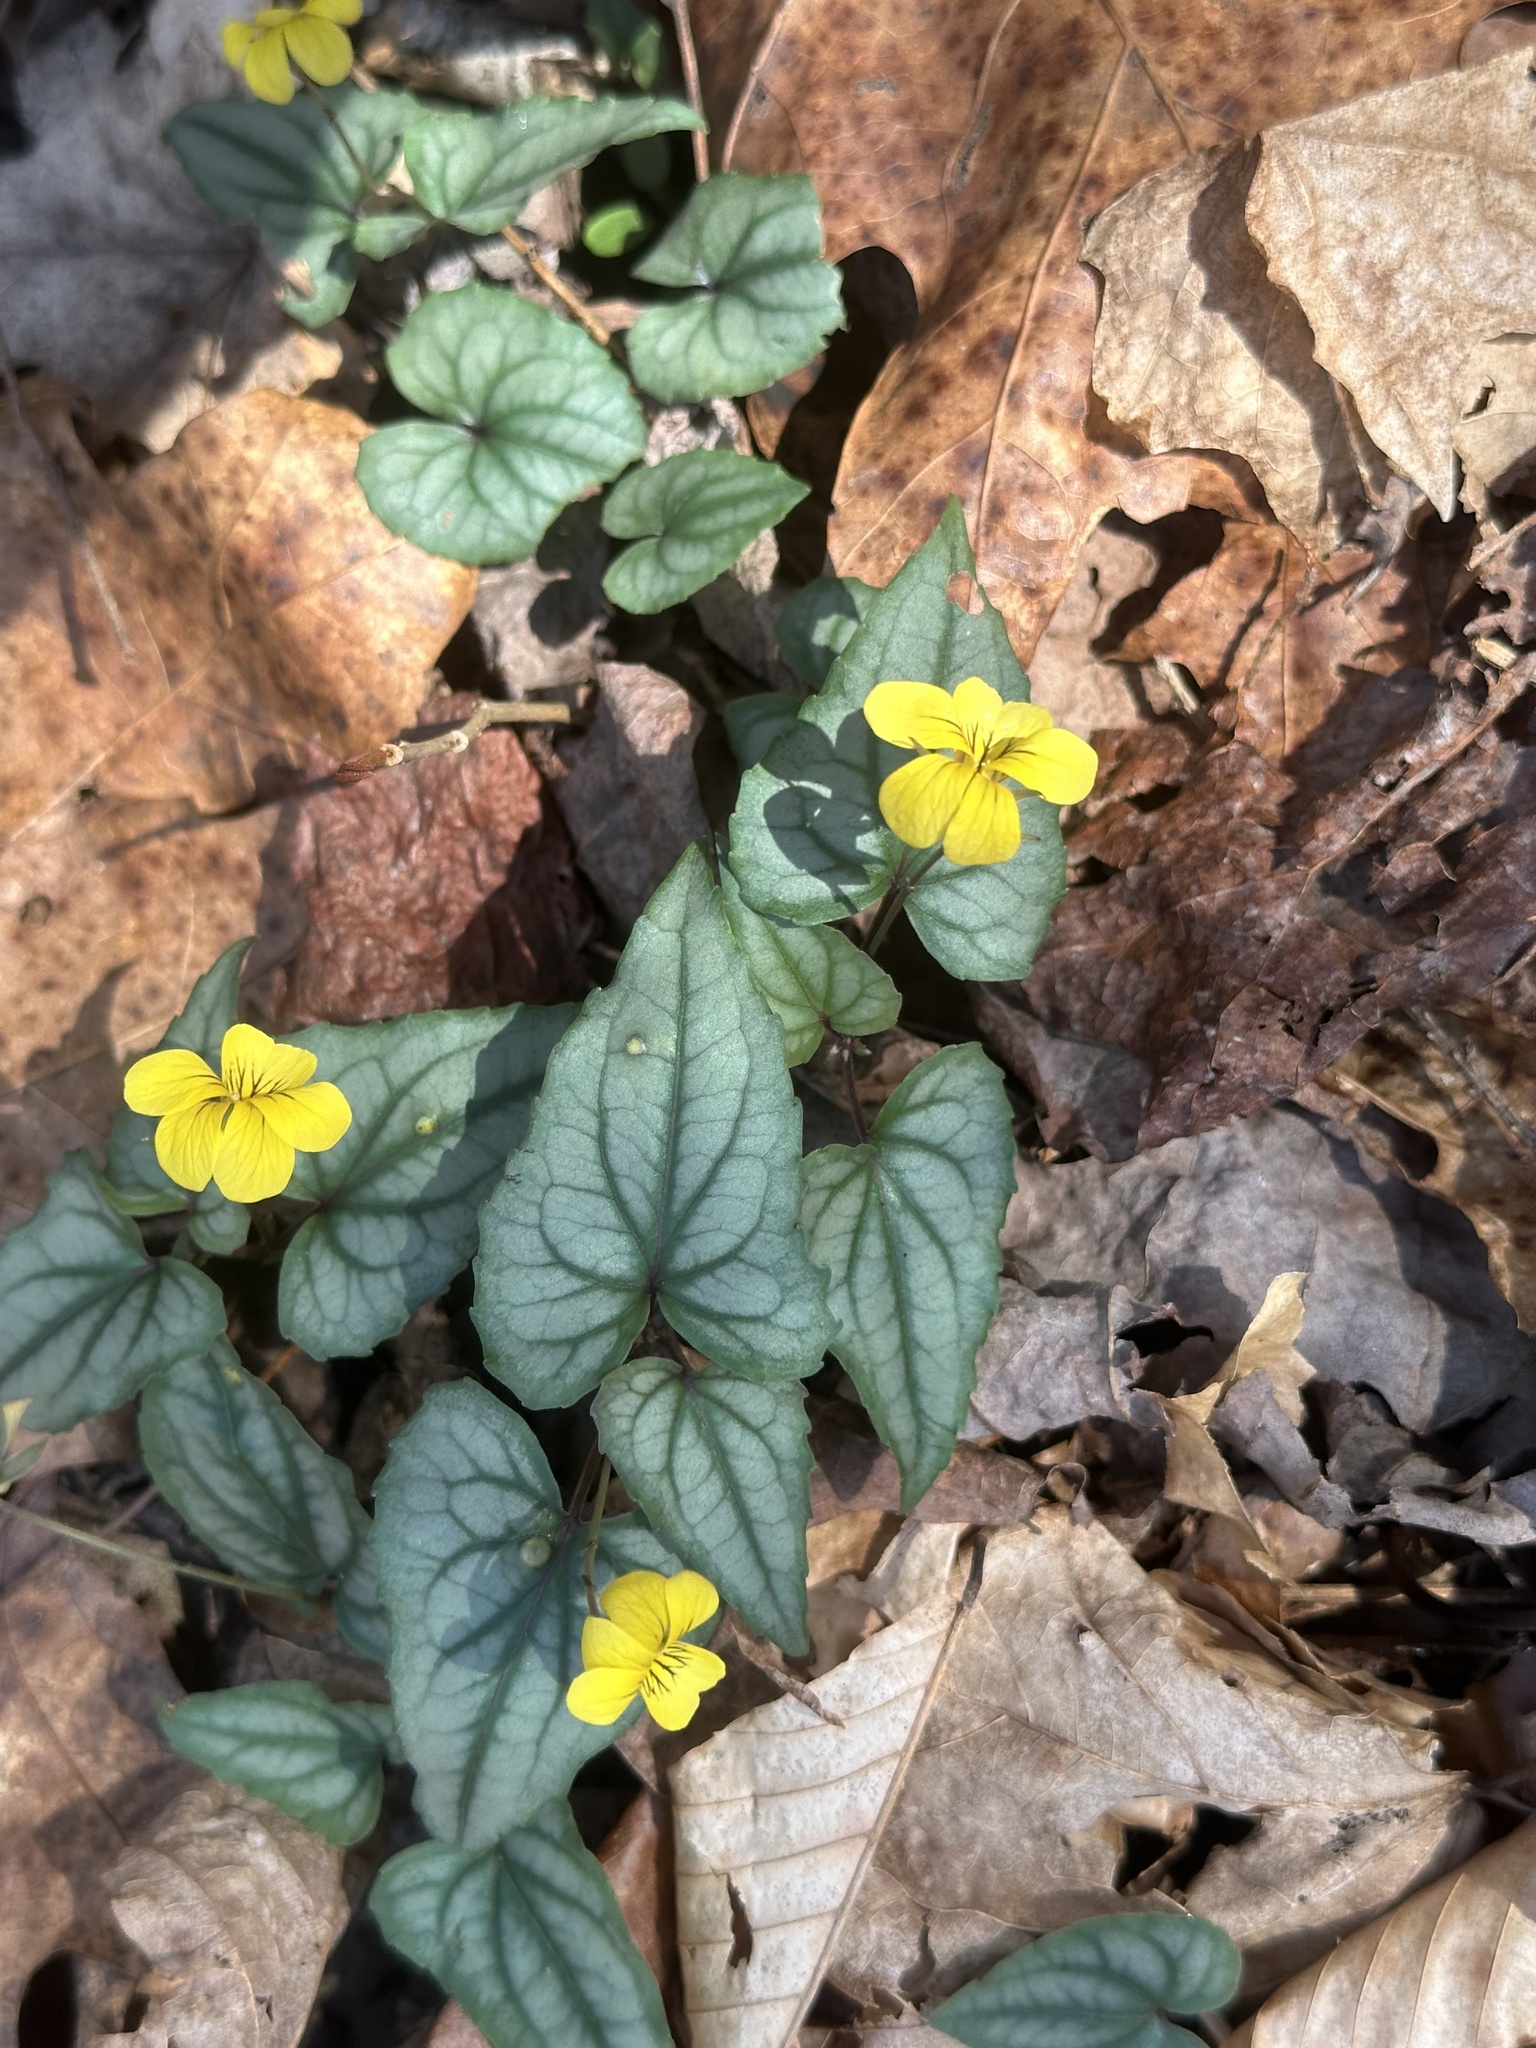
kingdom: Plantae
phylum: Tracheophyta
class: Magnoliopsida
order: Malpighiales
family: Violaceae
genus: Viola
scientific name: Viola hastata
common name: Spear-leaf violet
